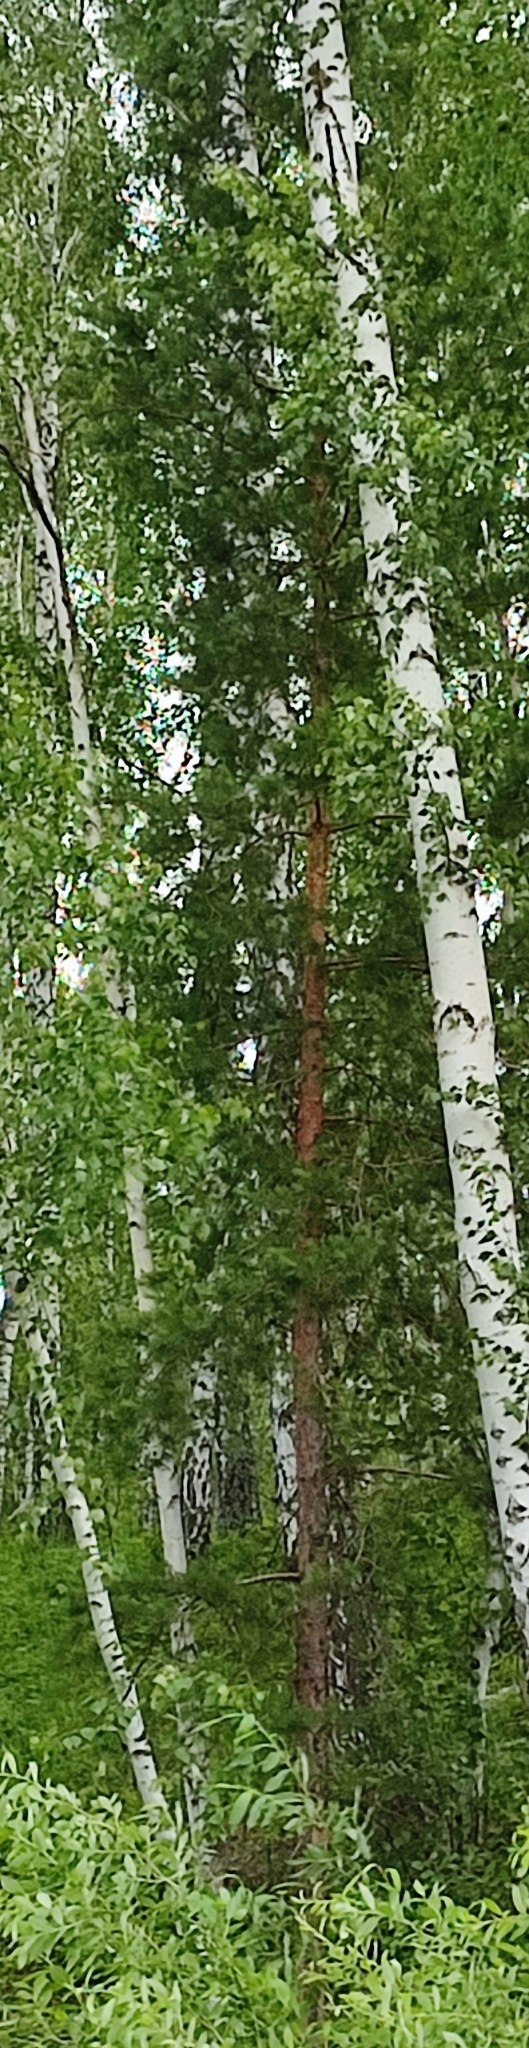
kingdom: Plantae
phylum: Tracheophyta
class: Pinopsida
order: Pinales
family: Pinaceae
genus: Pinus
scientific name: Pinus sylvestris
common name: Scots pine
